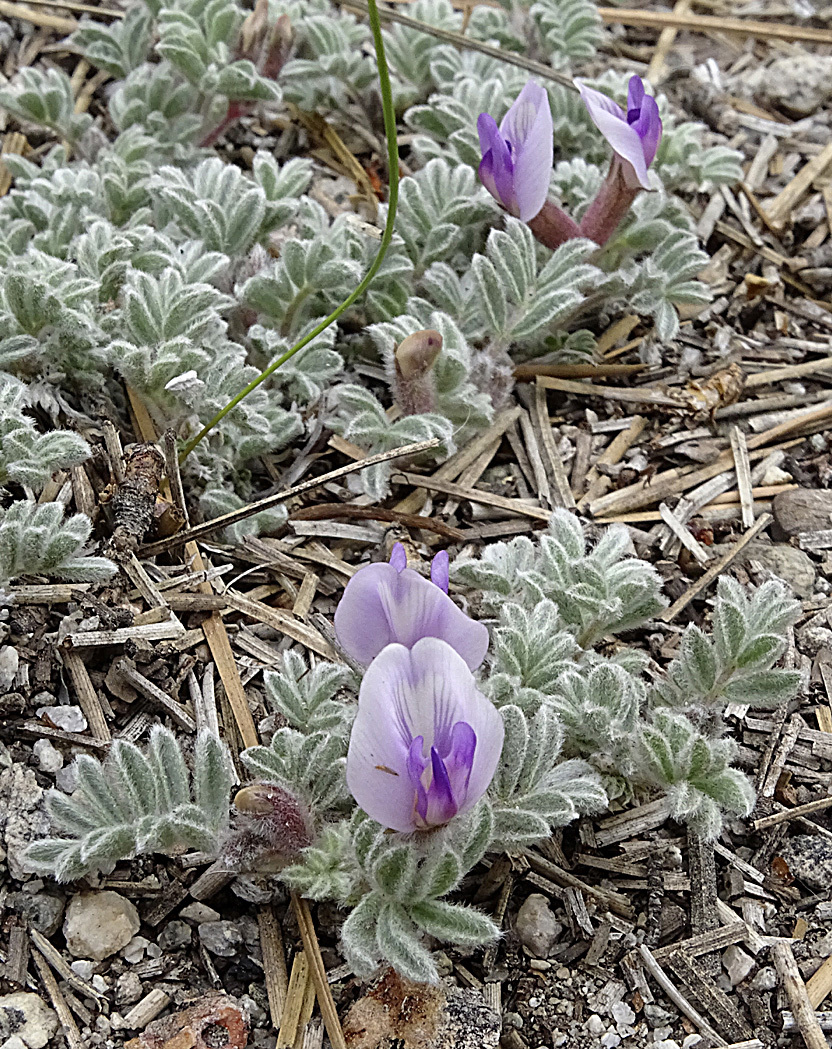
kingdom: Plantae
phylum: Tracheophyta
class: Magnoliopsida
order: Fabales
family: Fabaceae
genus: Astragalus
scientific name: Astragalus purshii
